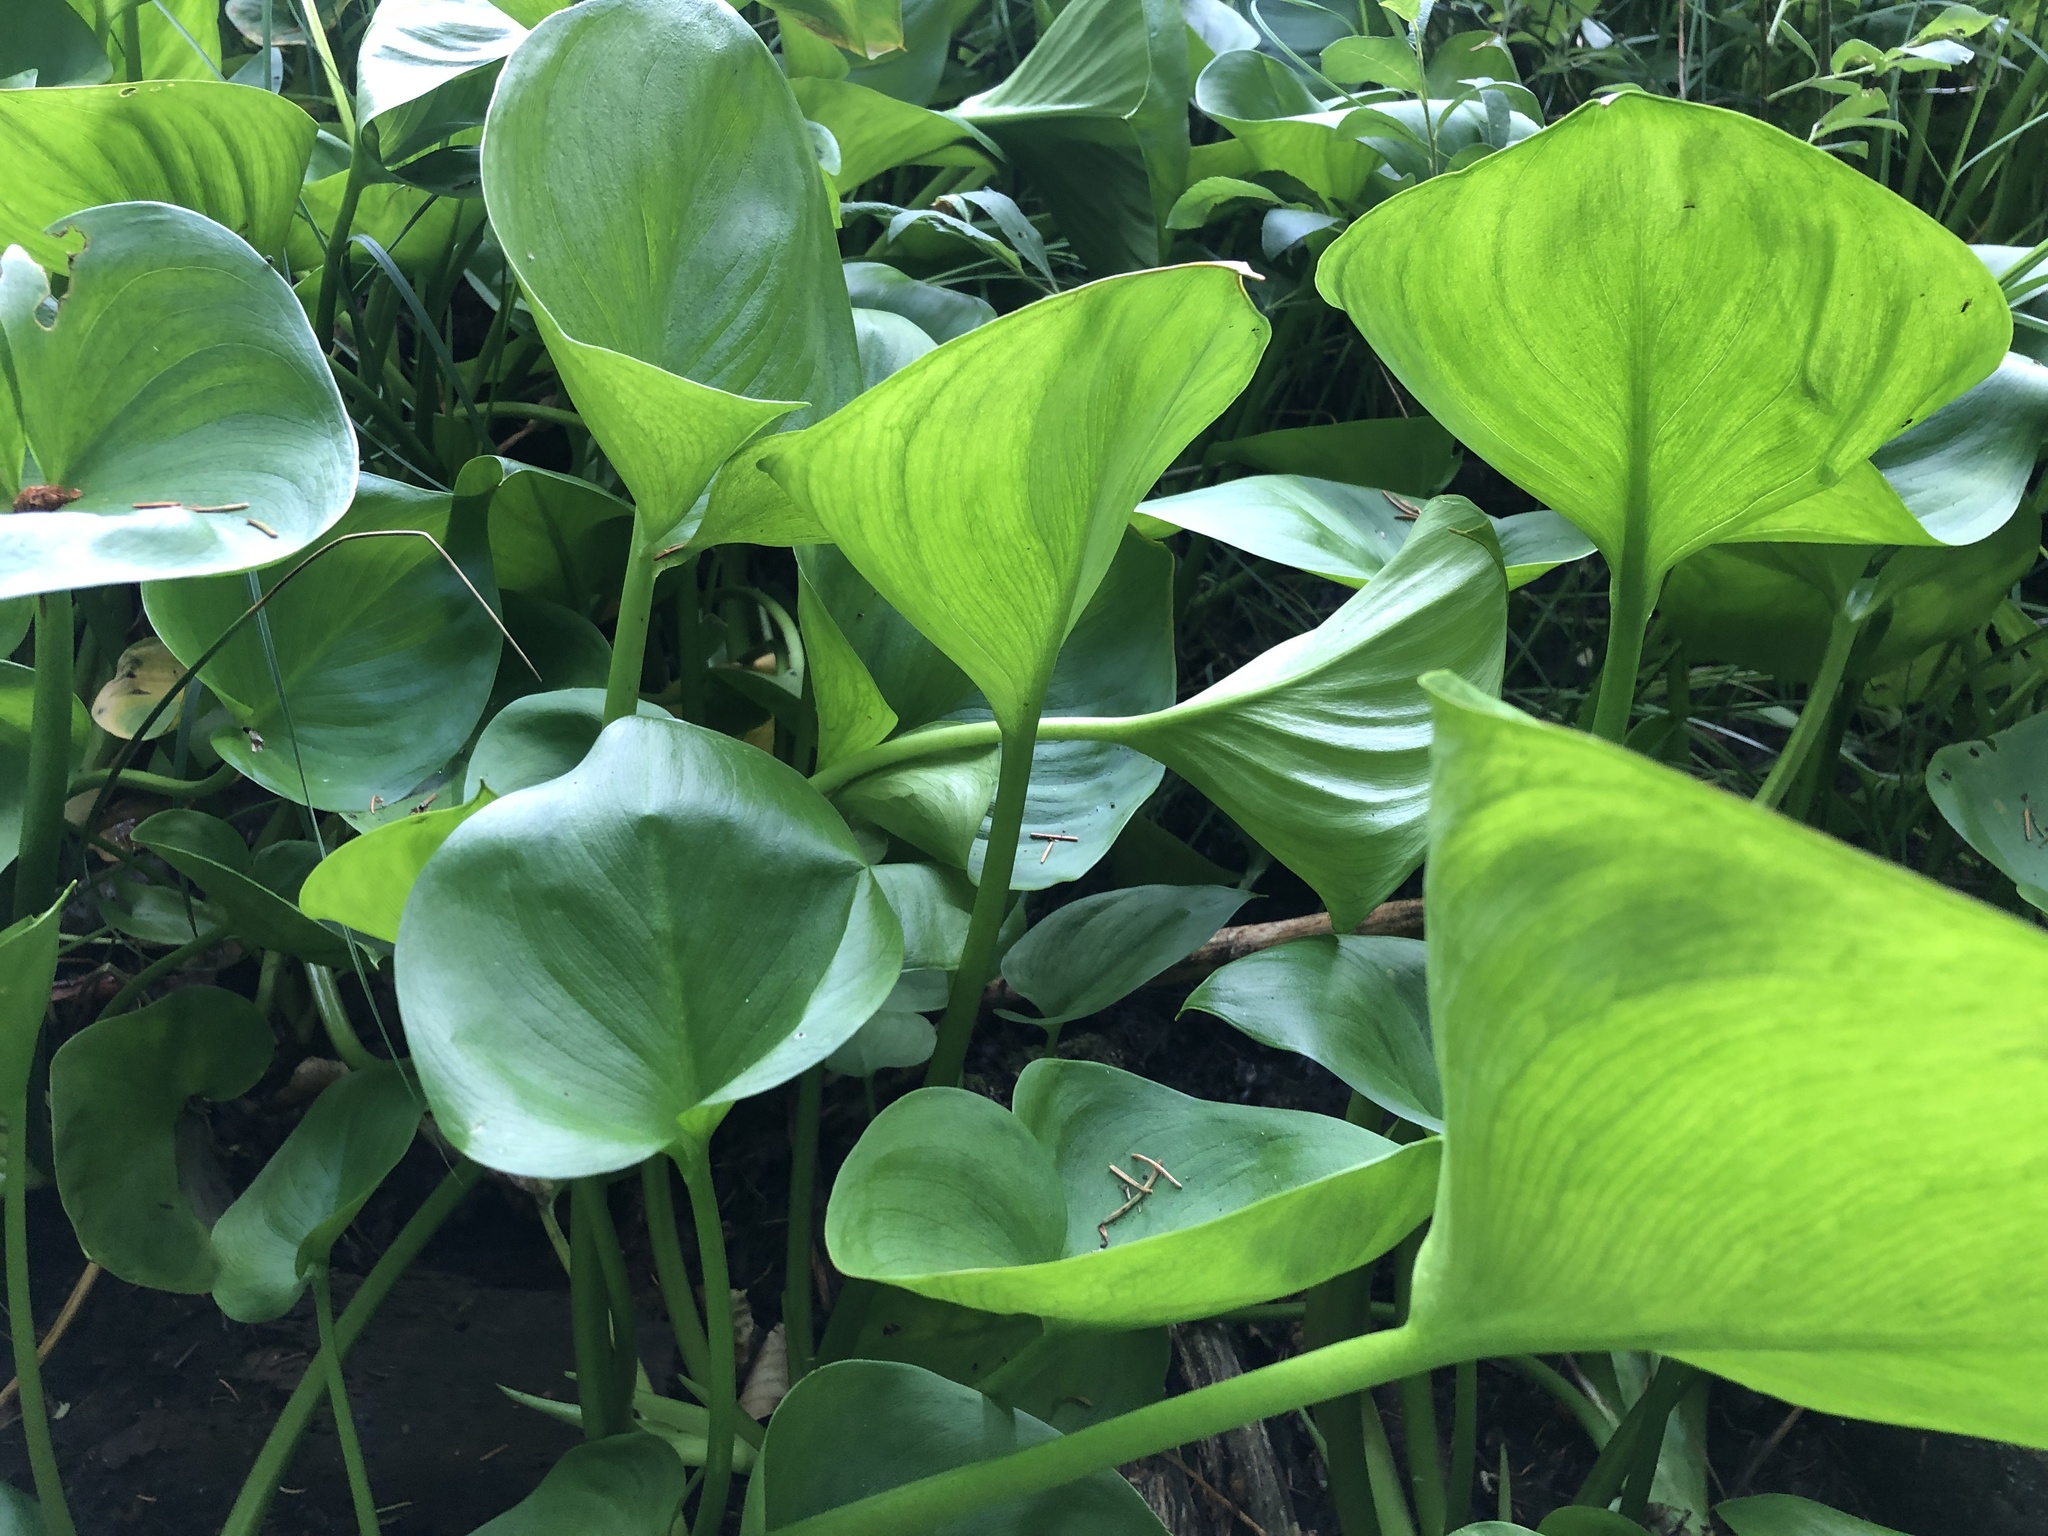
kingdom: Plantae
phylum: Tracheophyta
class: Liliopsida
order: Alismatales
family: Araceae
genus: Calla
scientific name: Calla palustris
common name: Bog arum
